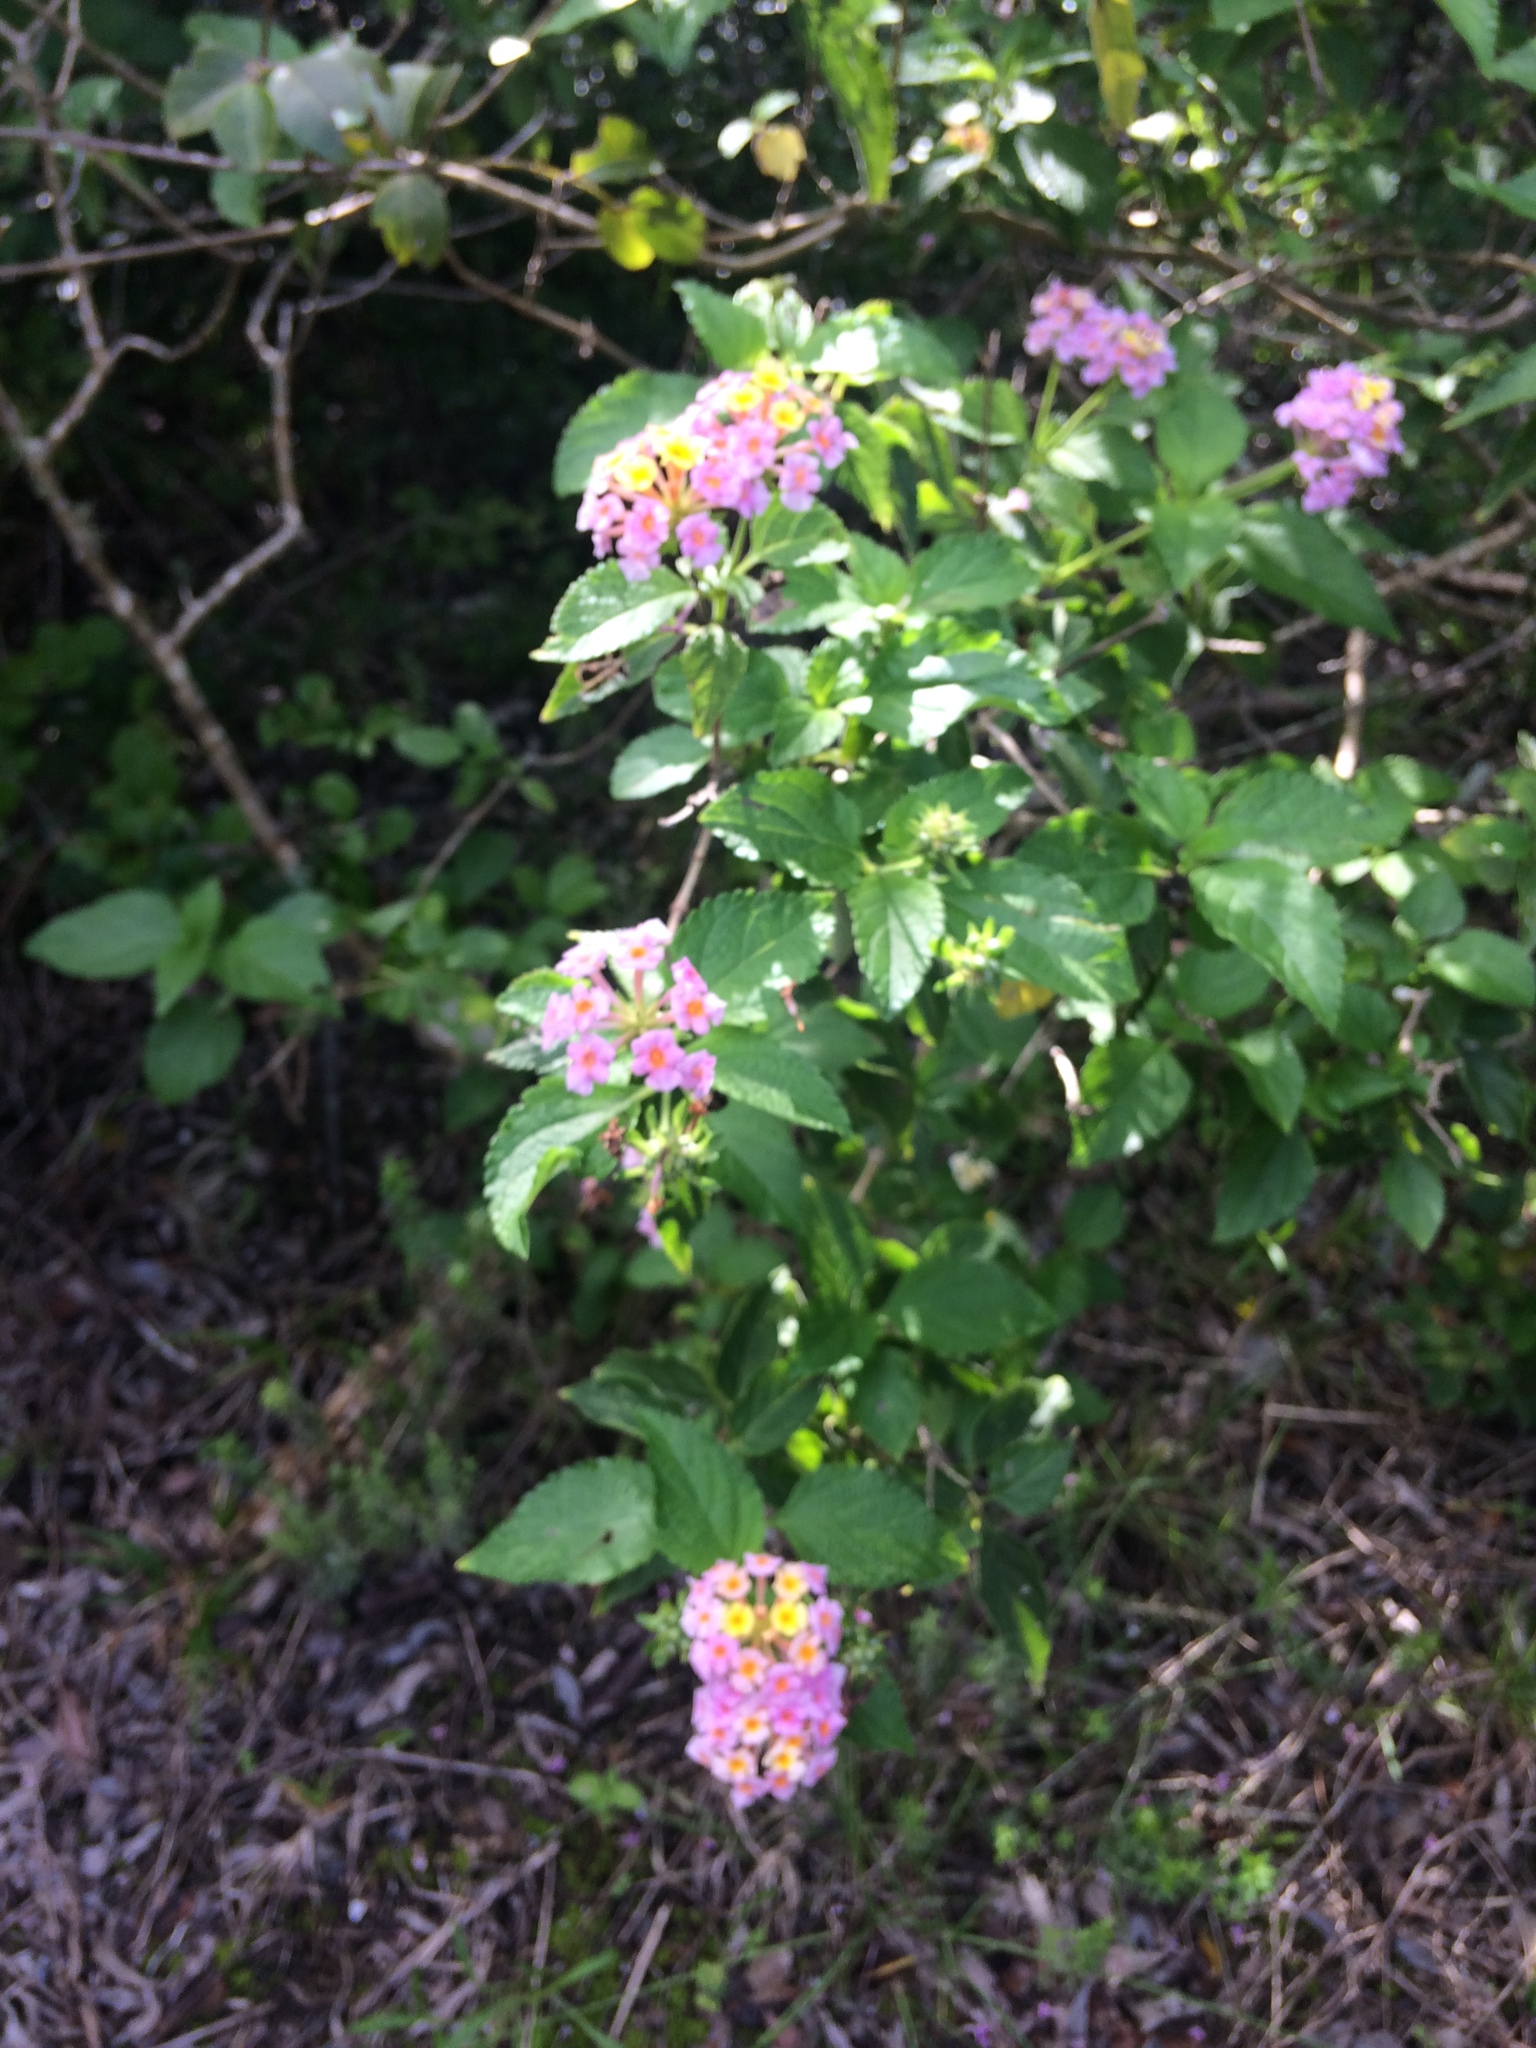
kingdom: Plantae
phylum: Tracheophyta
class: Magnoliopsida
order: Lamiales
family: Verbenaceae
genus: Lantana
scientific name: Lantana camara
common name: Lantana
